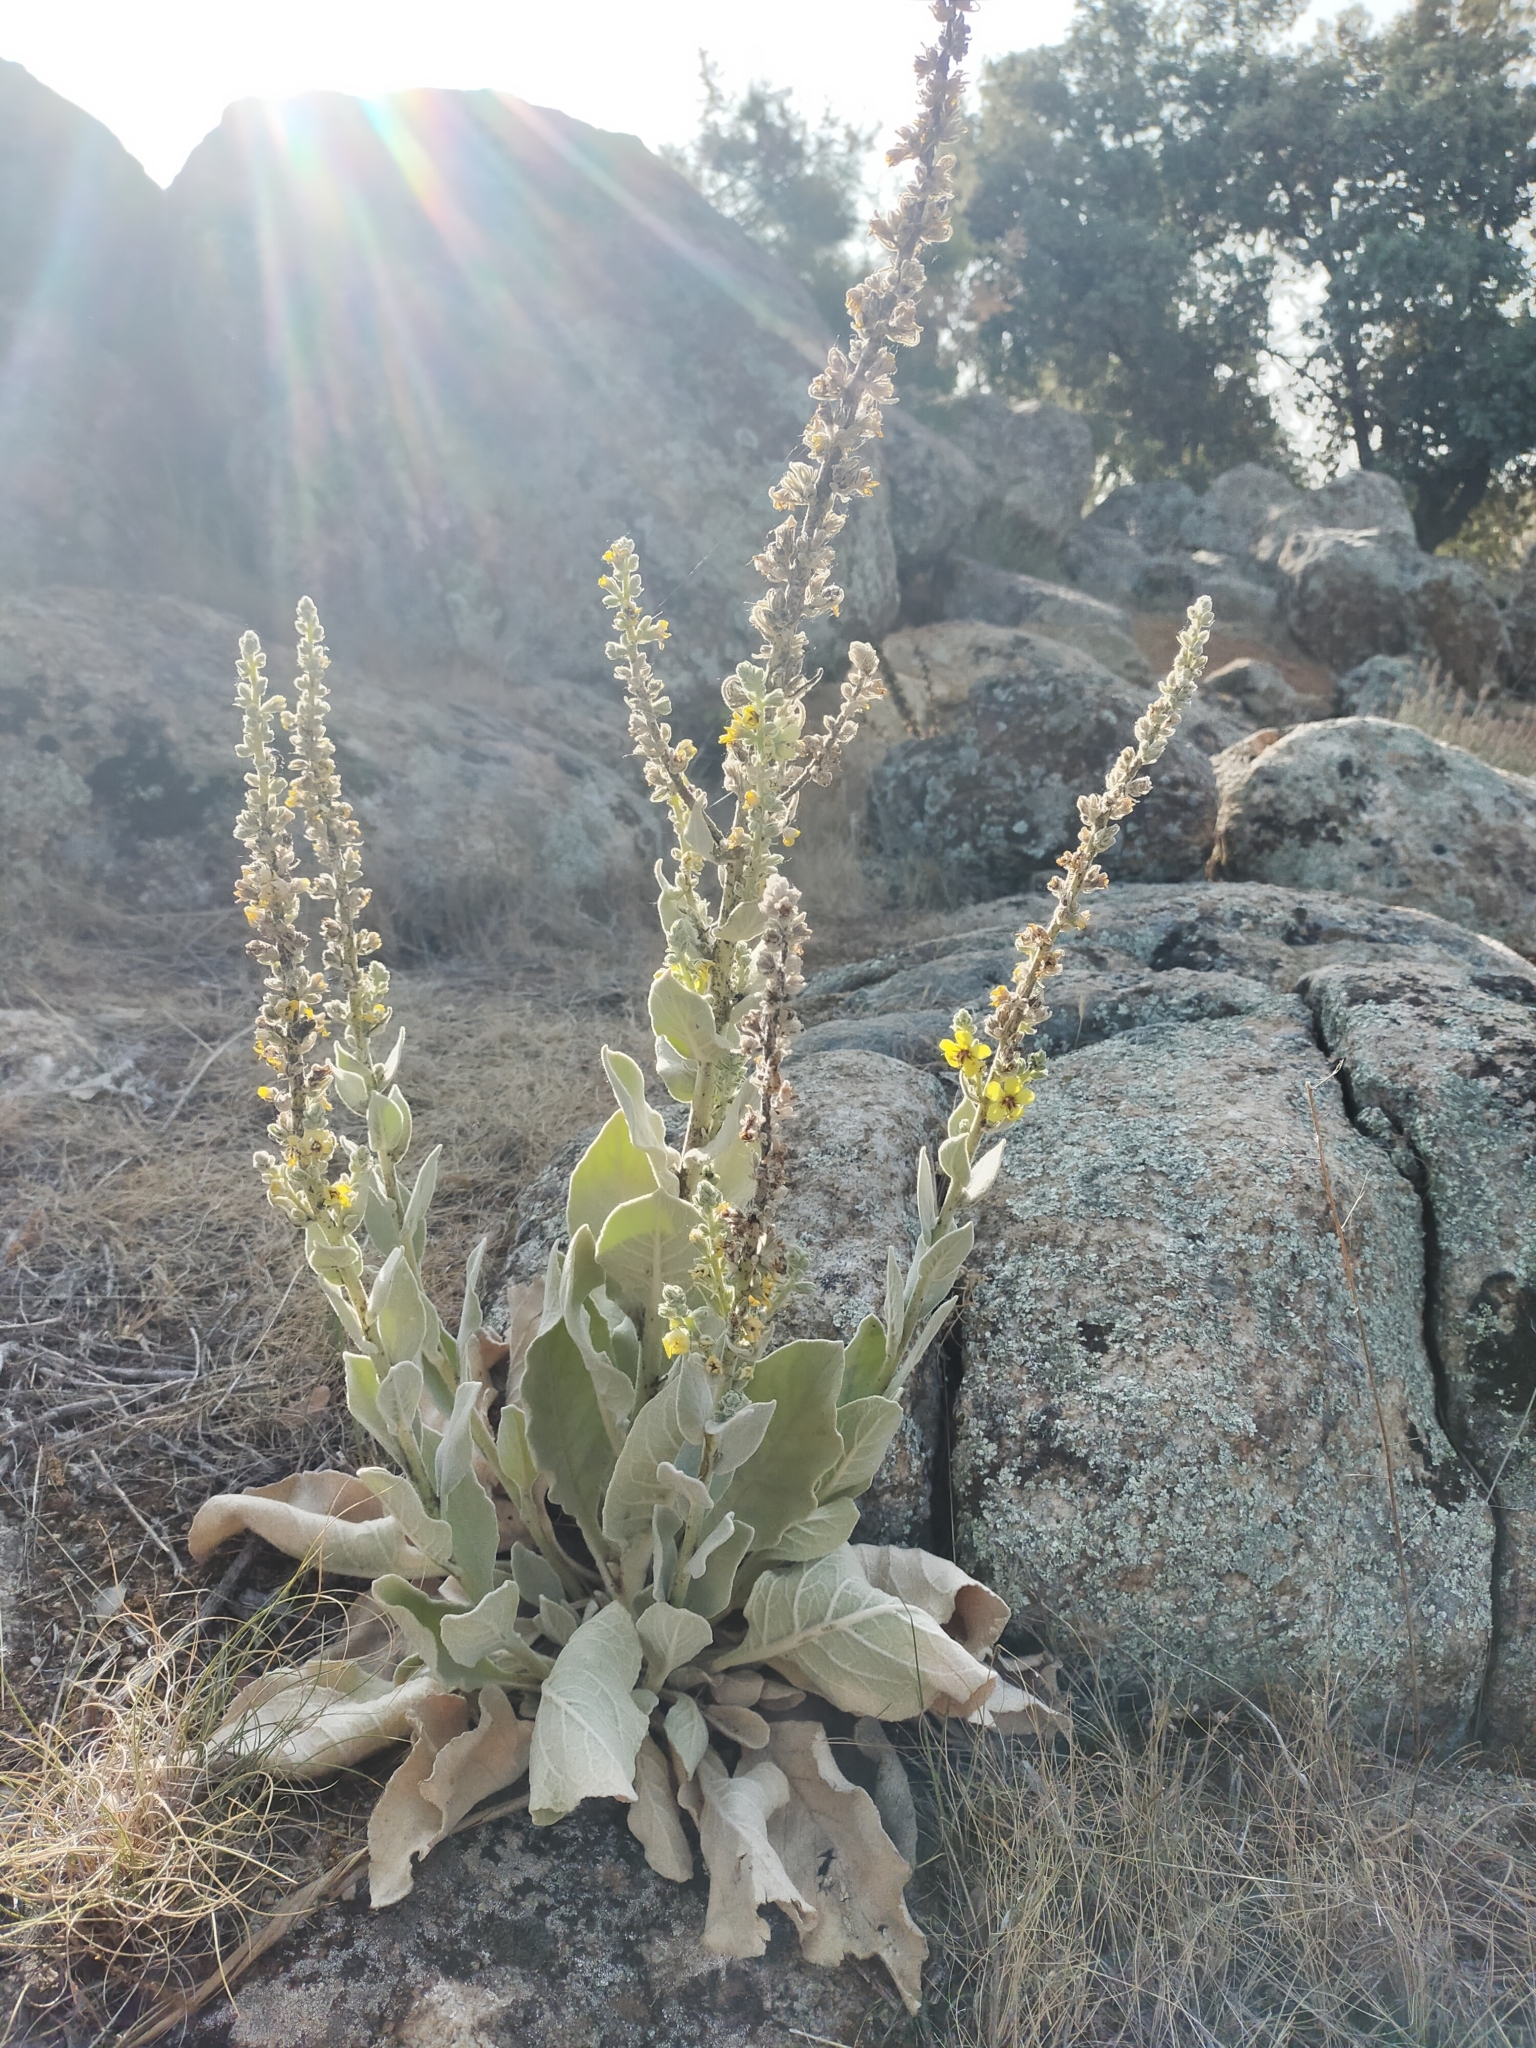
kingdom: Plantae
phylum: Tracheophyta
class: Magnoliopsida
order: Lamiales
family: Scrophulariaceae
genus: Verbascum
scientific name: Verbascum rotundifolium
